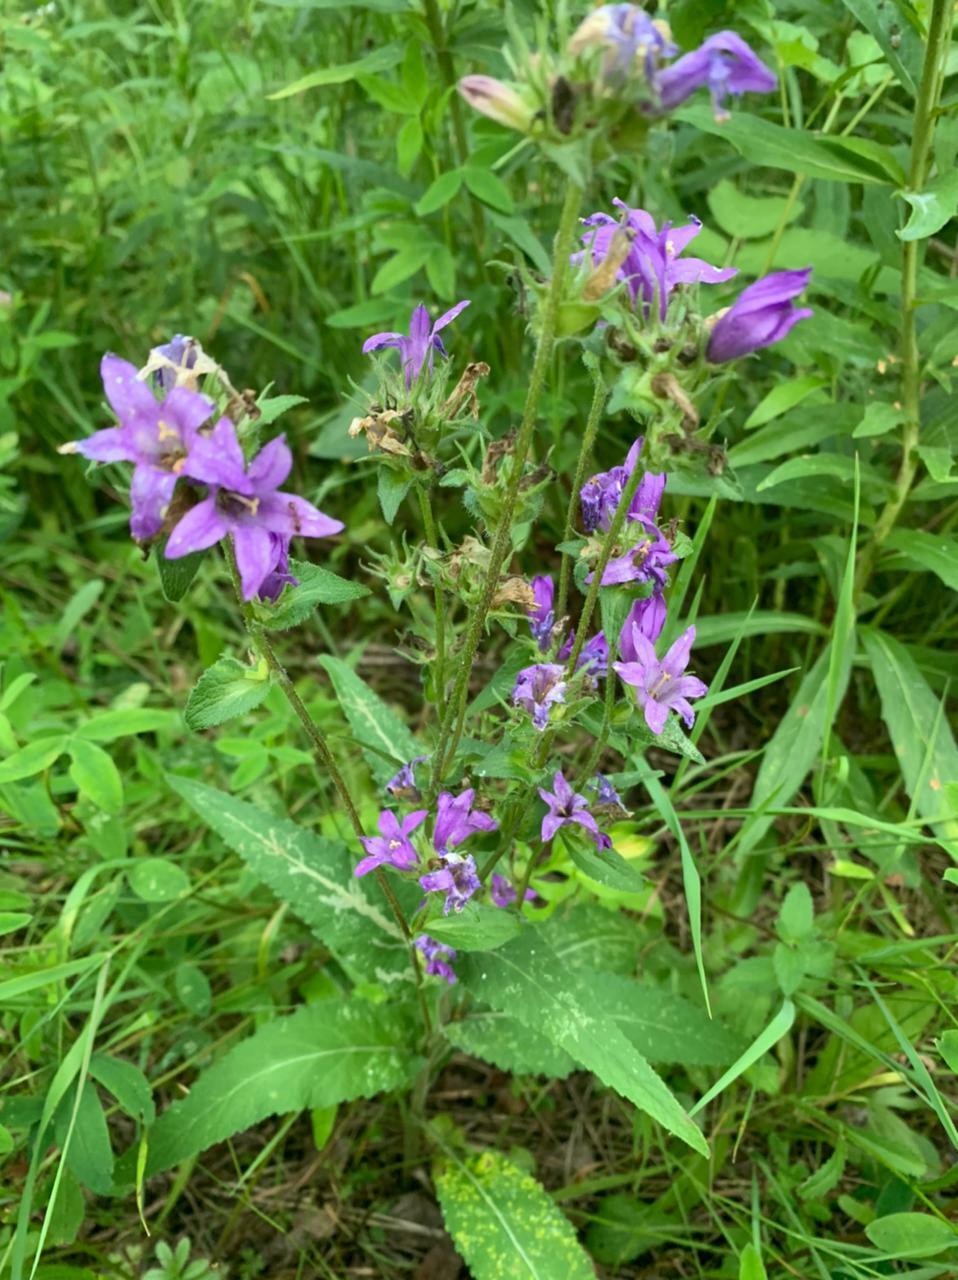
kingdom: Plantae
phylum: Tracheophyta
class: Magnoliopsida
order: Asterales
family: Campanulaceae
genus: Campanula
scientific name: Campanula glomerata
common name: Clustered bellflower
